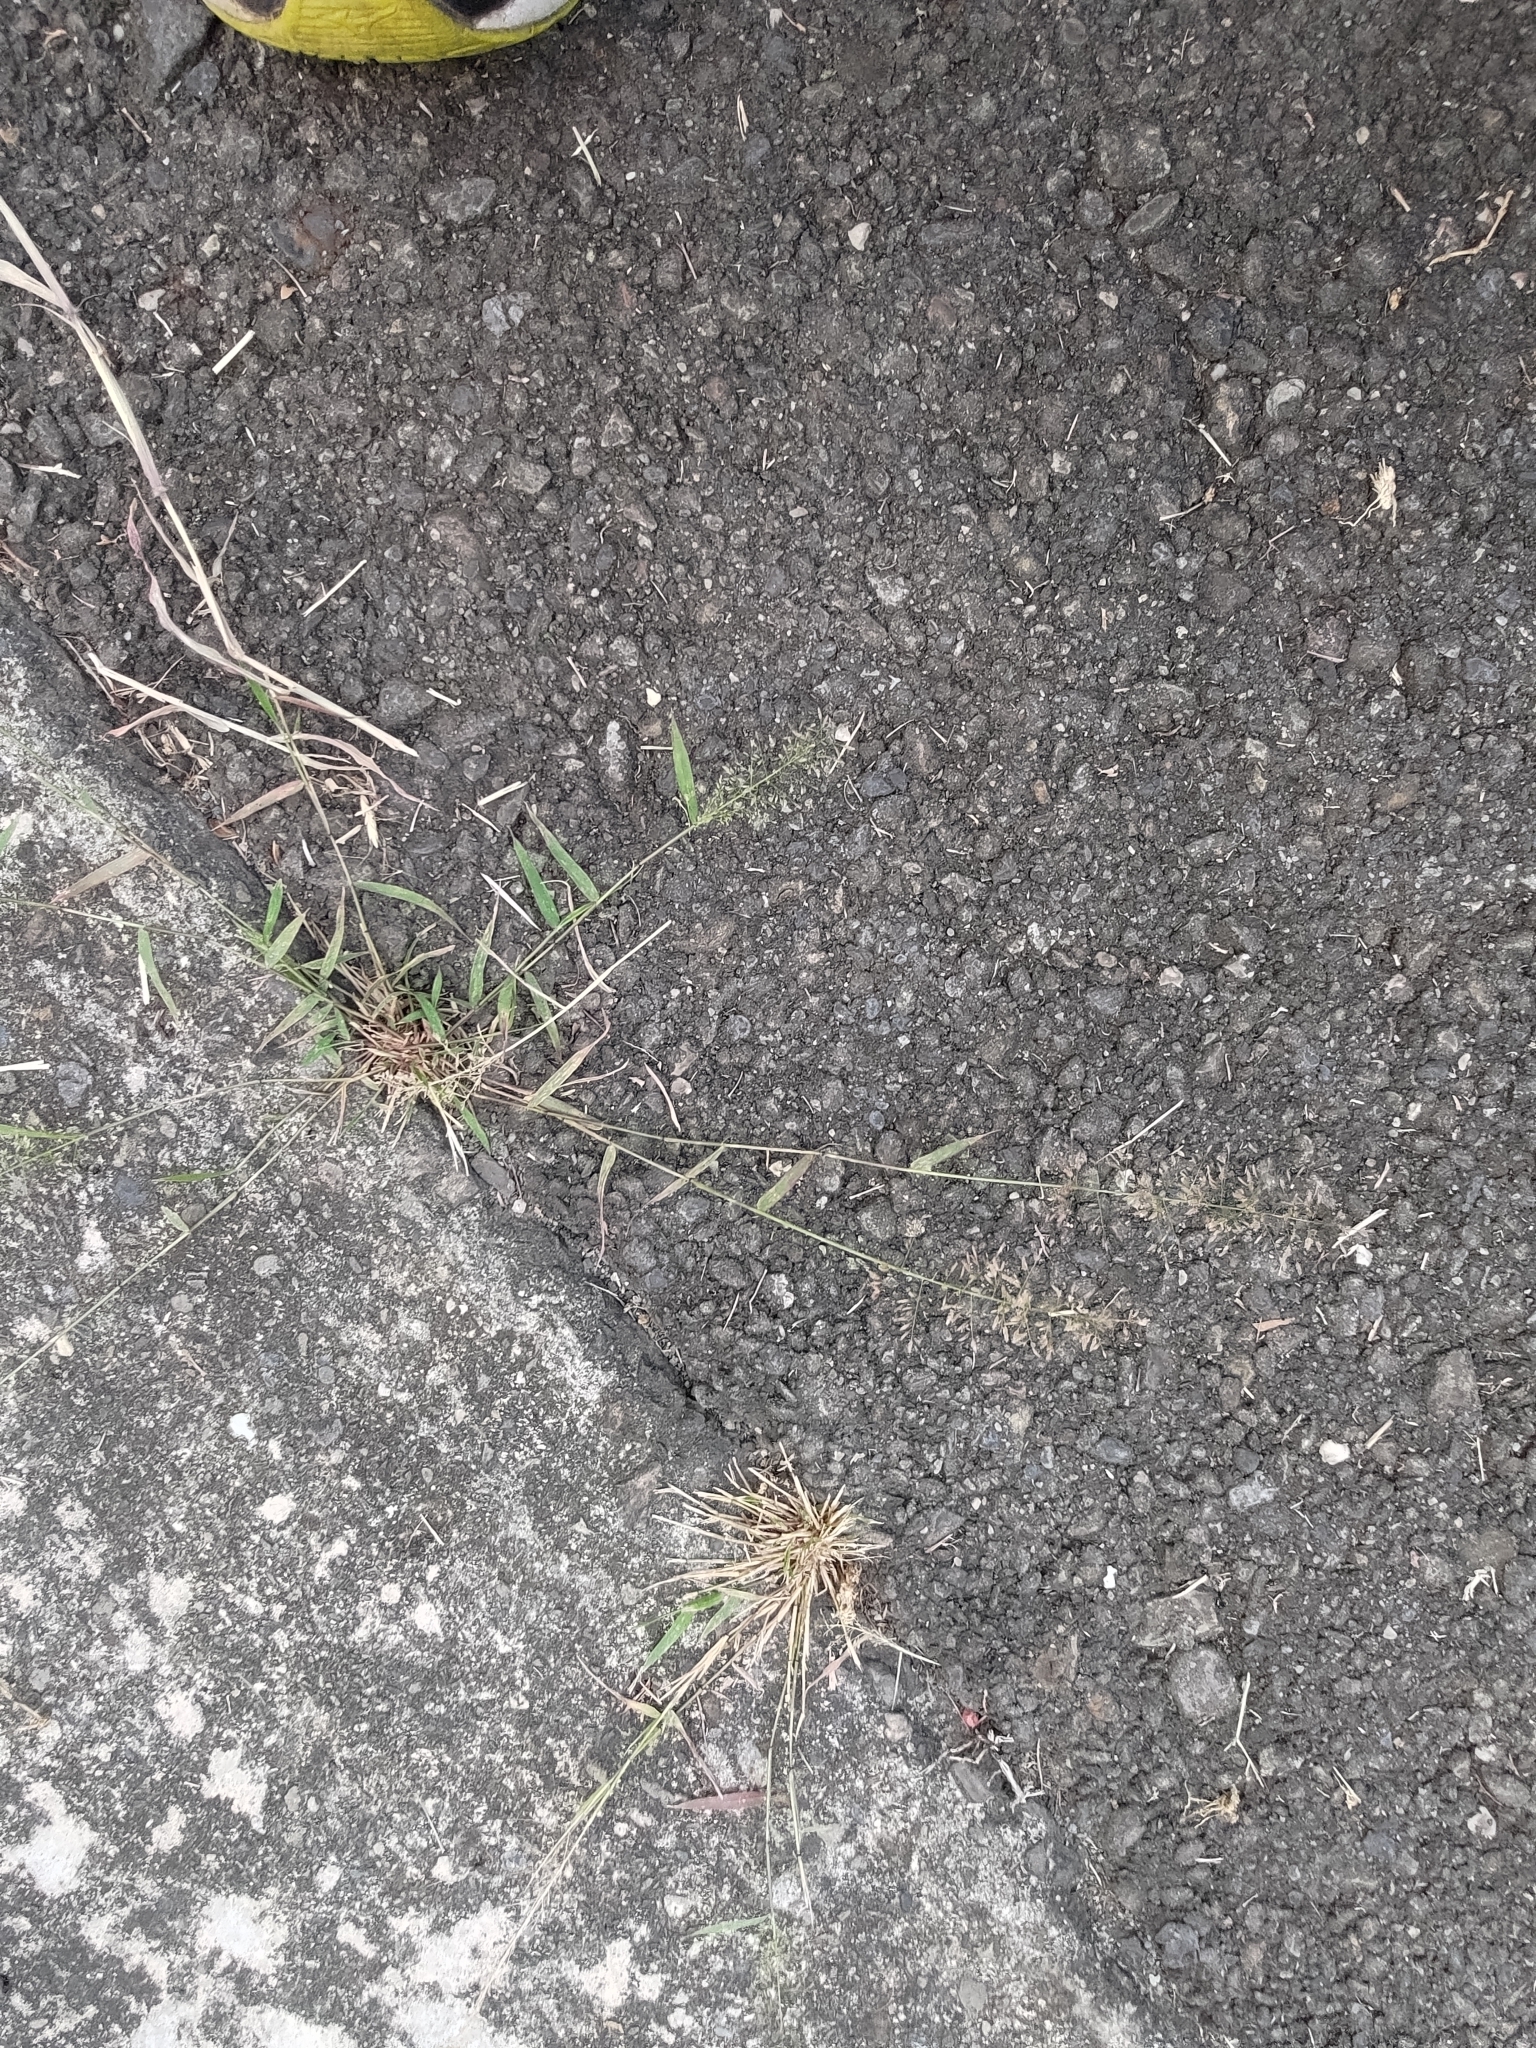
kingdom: Plantae
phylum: Tracheophyta
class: Liliopsida
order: Poales
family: Poaceae
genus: Eragrostis
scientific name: Eragrostis tenella
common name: Japanese lovegrass
